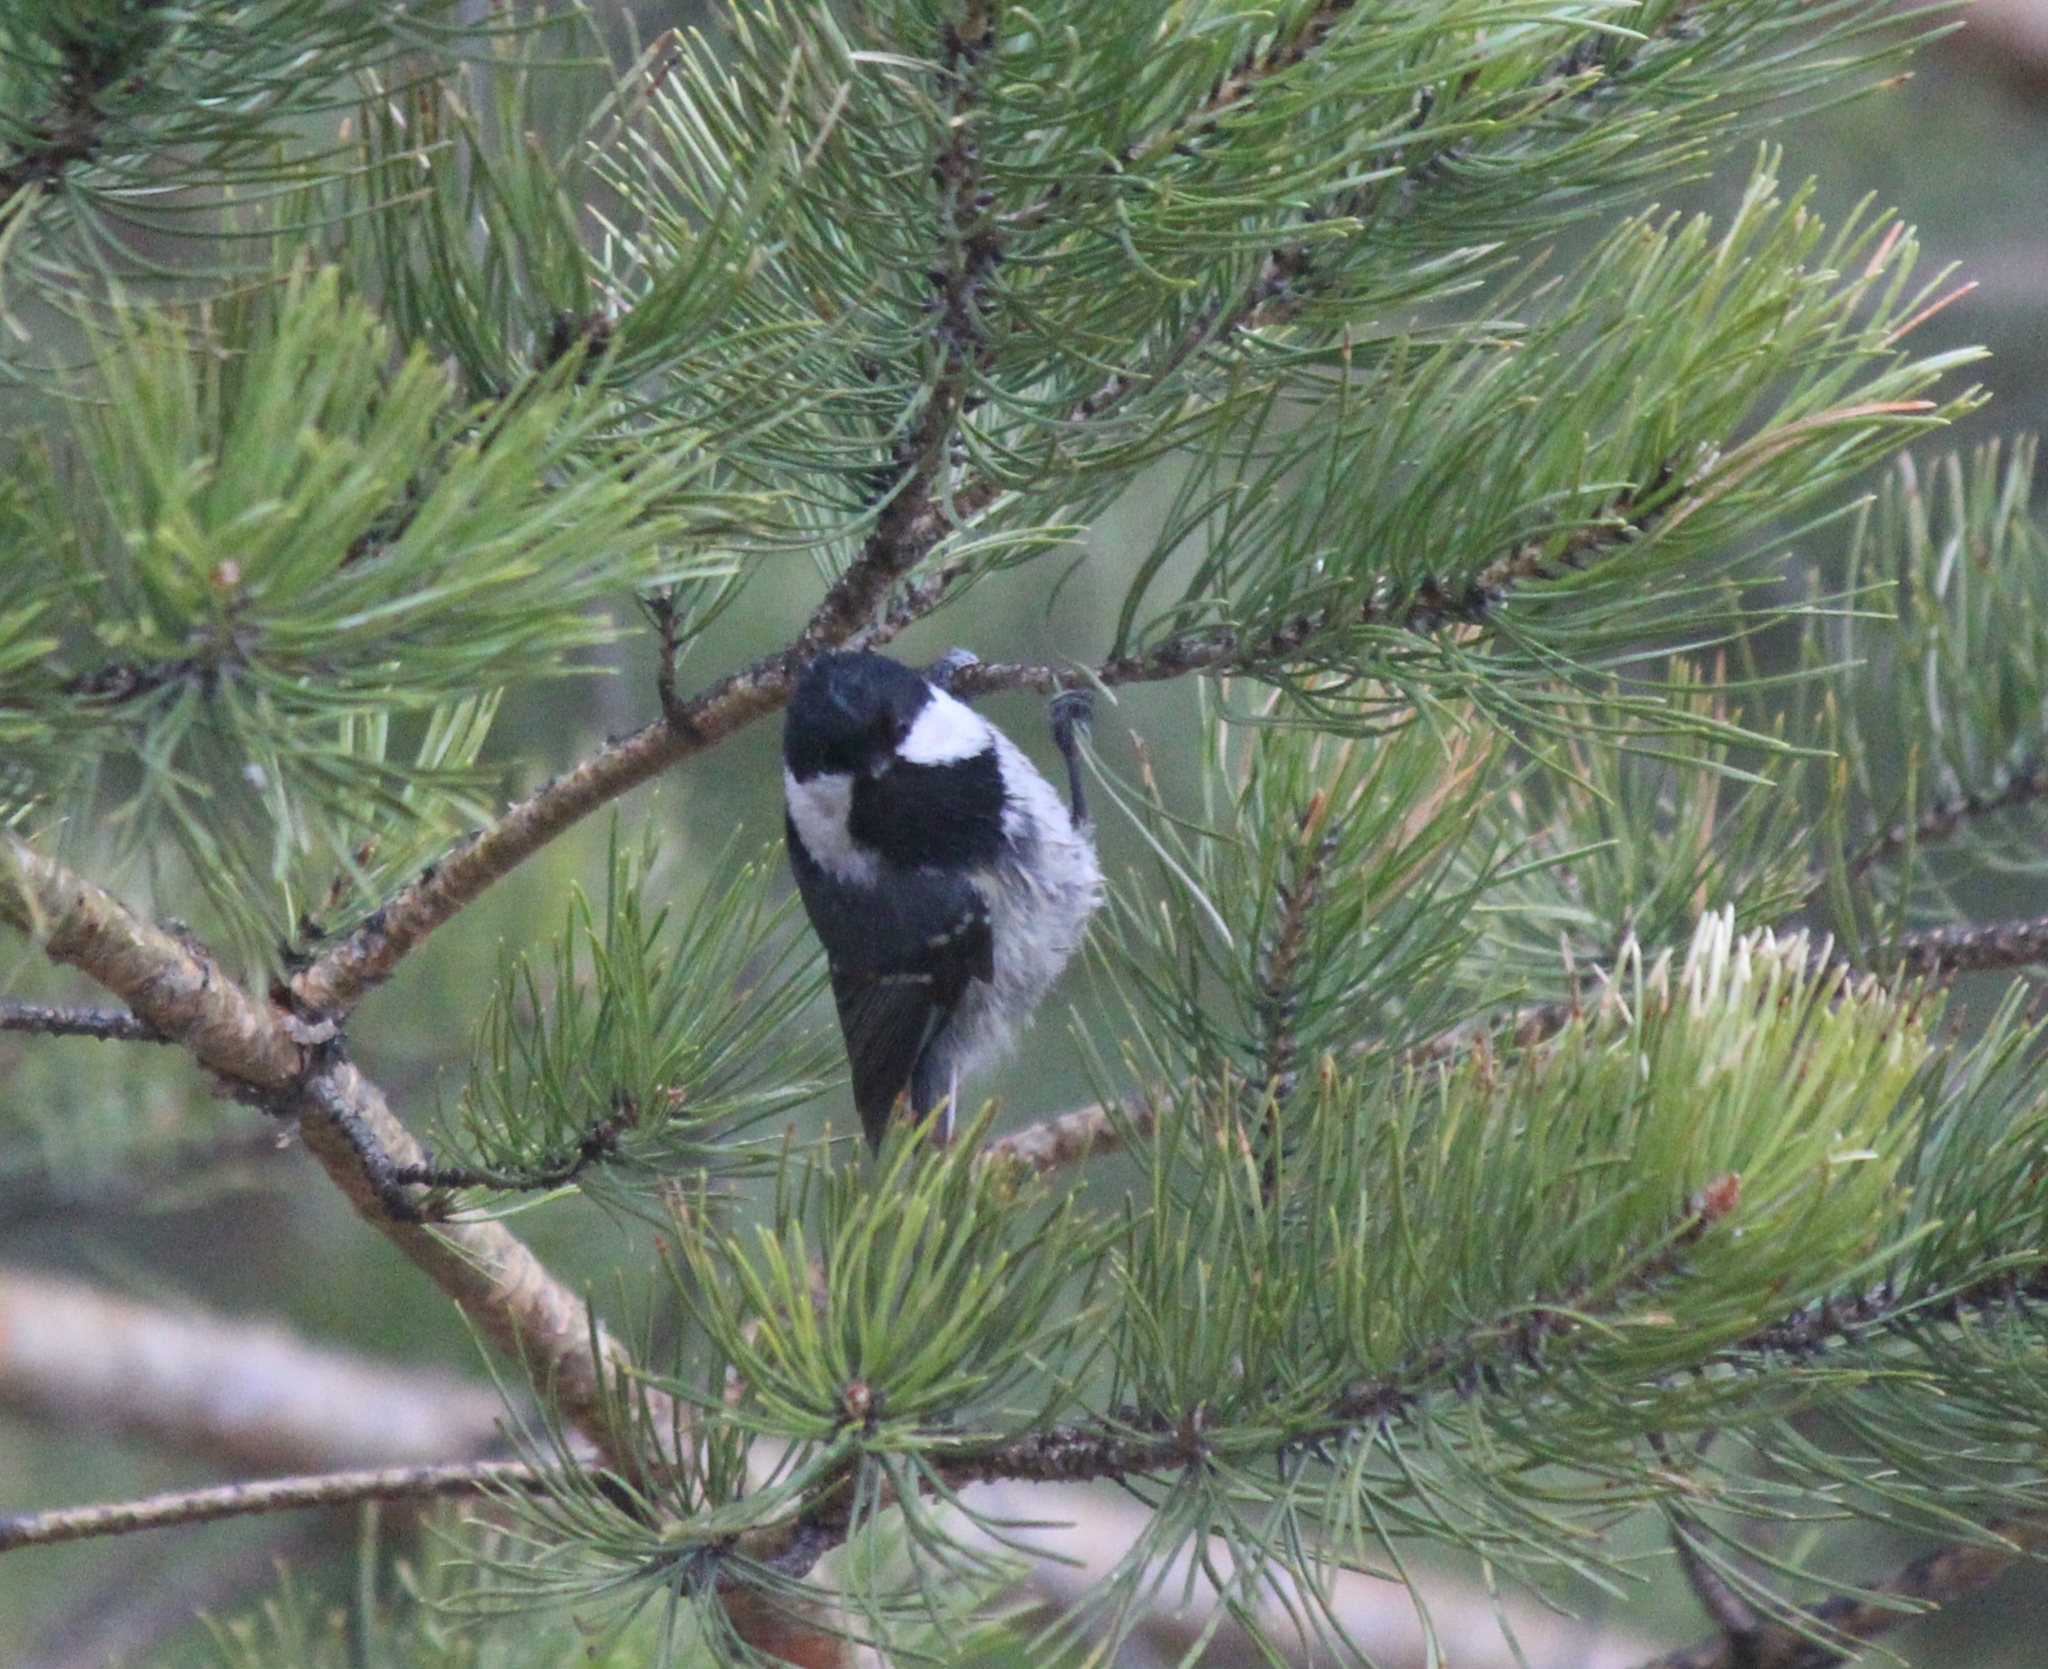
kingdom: Animalia
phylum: Chordata
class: Aves
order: Passeriformes
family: Paridae
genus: Periparus
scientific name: Periparus ater
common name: Coal tit
